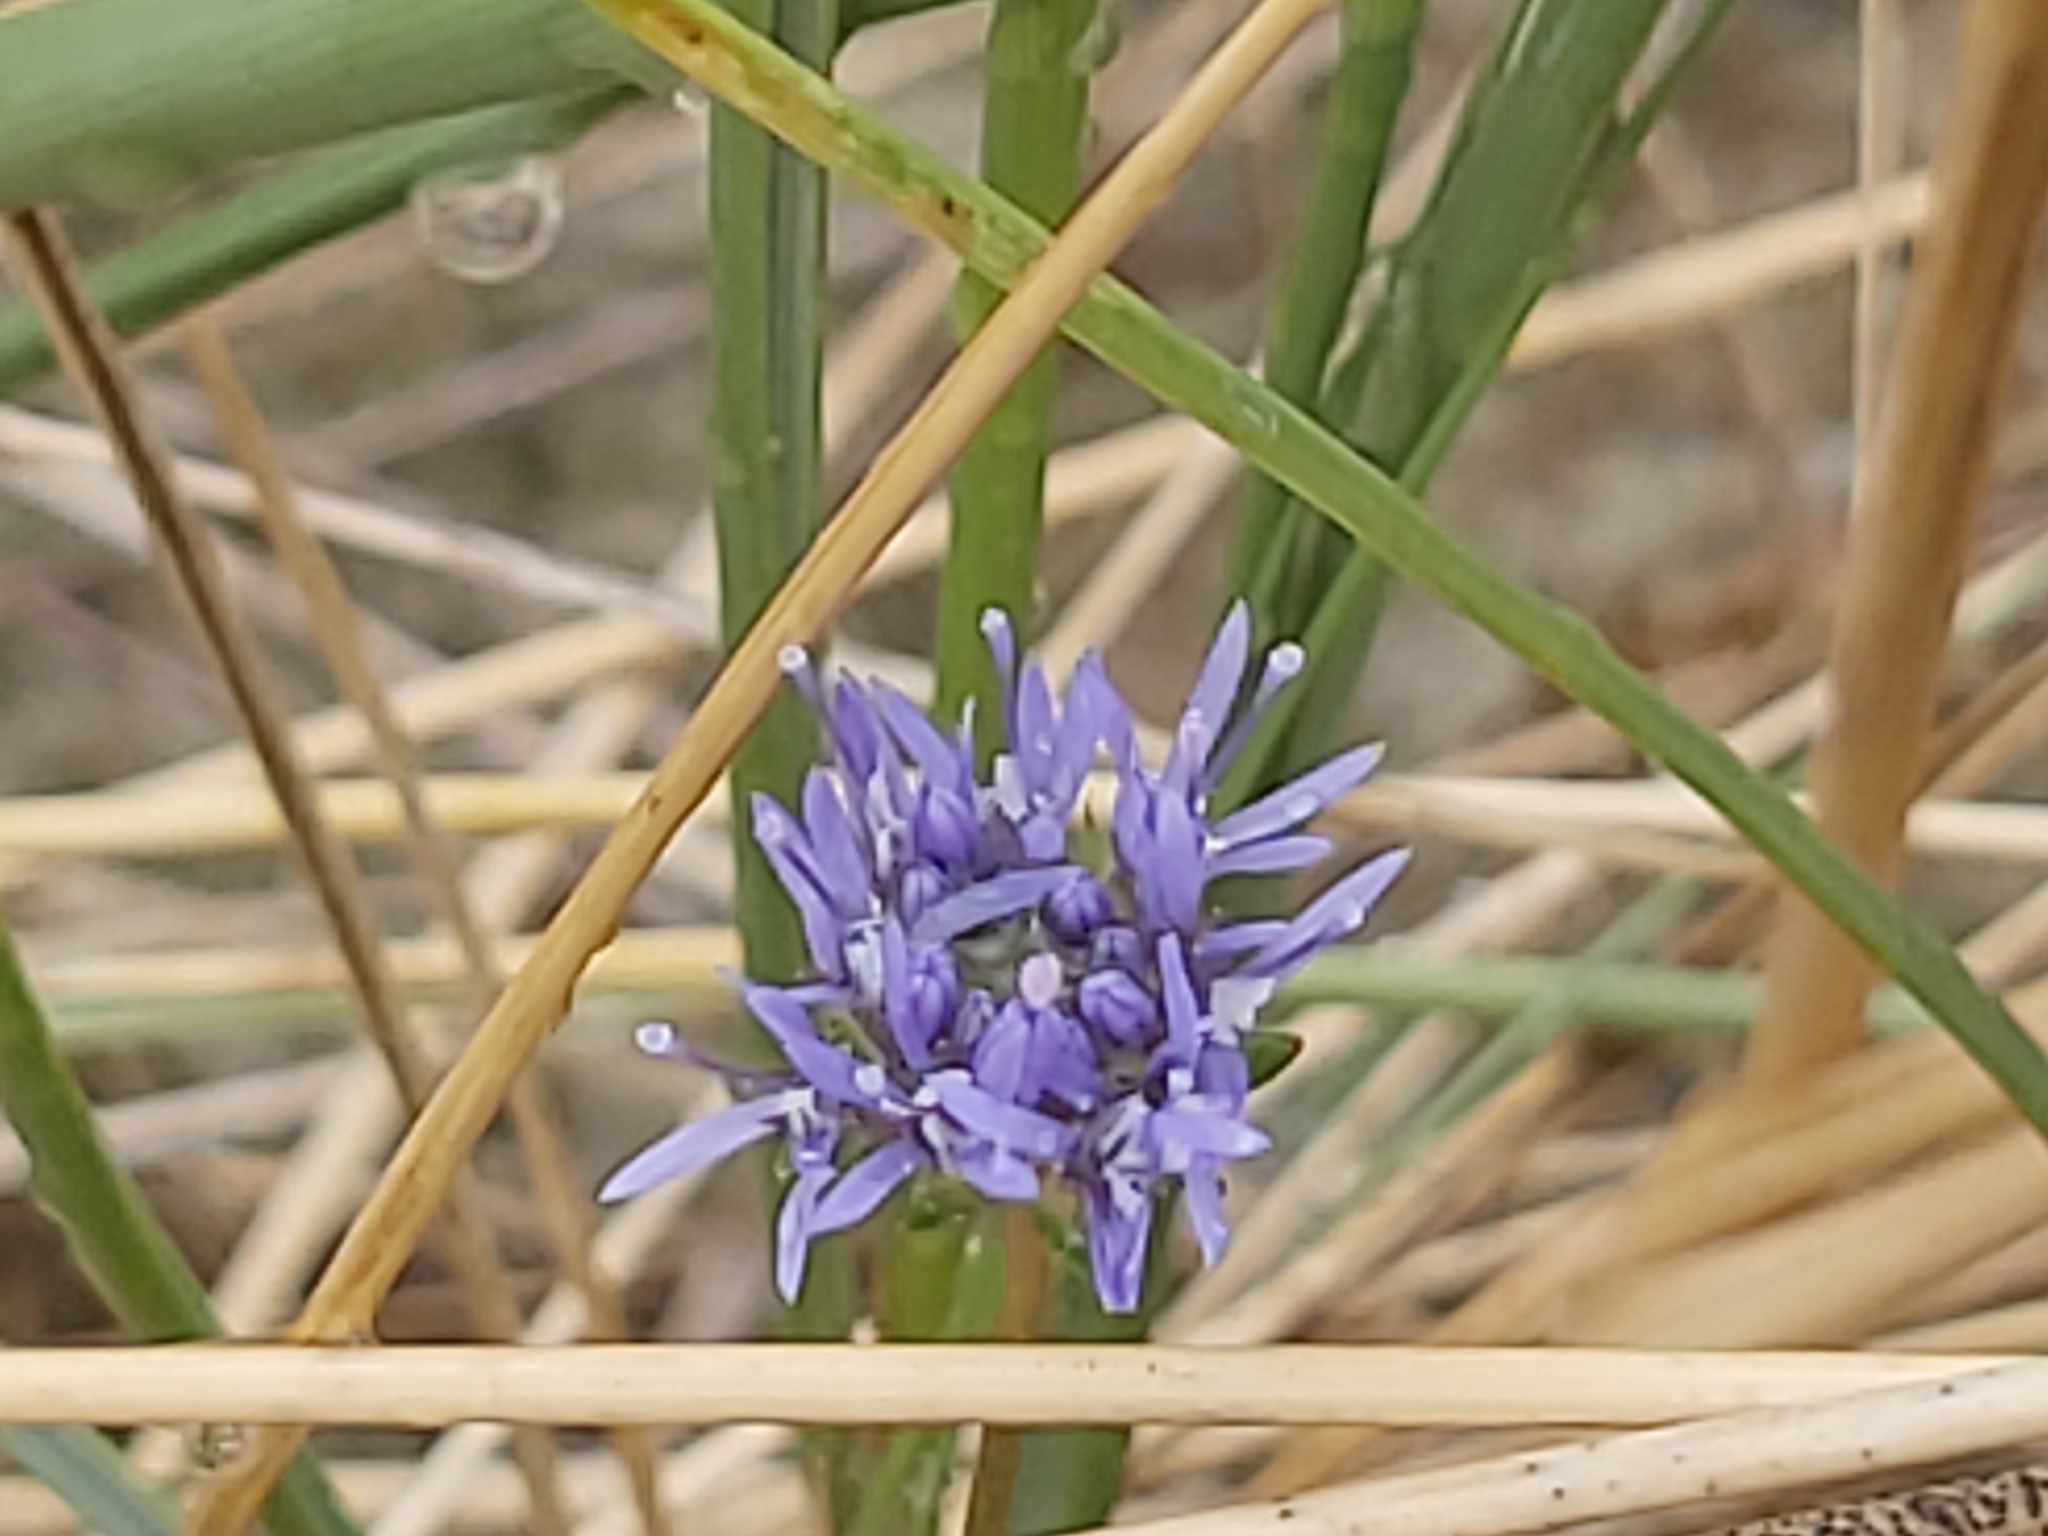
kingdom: Plantae
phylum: Tracheophyta
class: Magnoliopsida
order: Asterales
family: Campanulaceae
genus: Jasione
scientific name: Jasione montana
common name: Sheep's-bit
